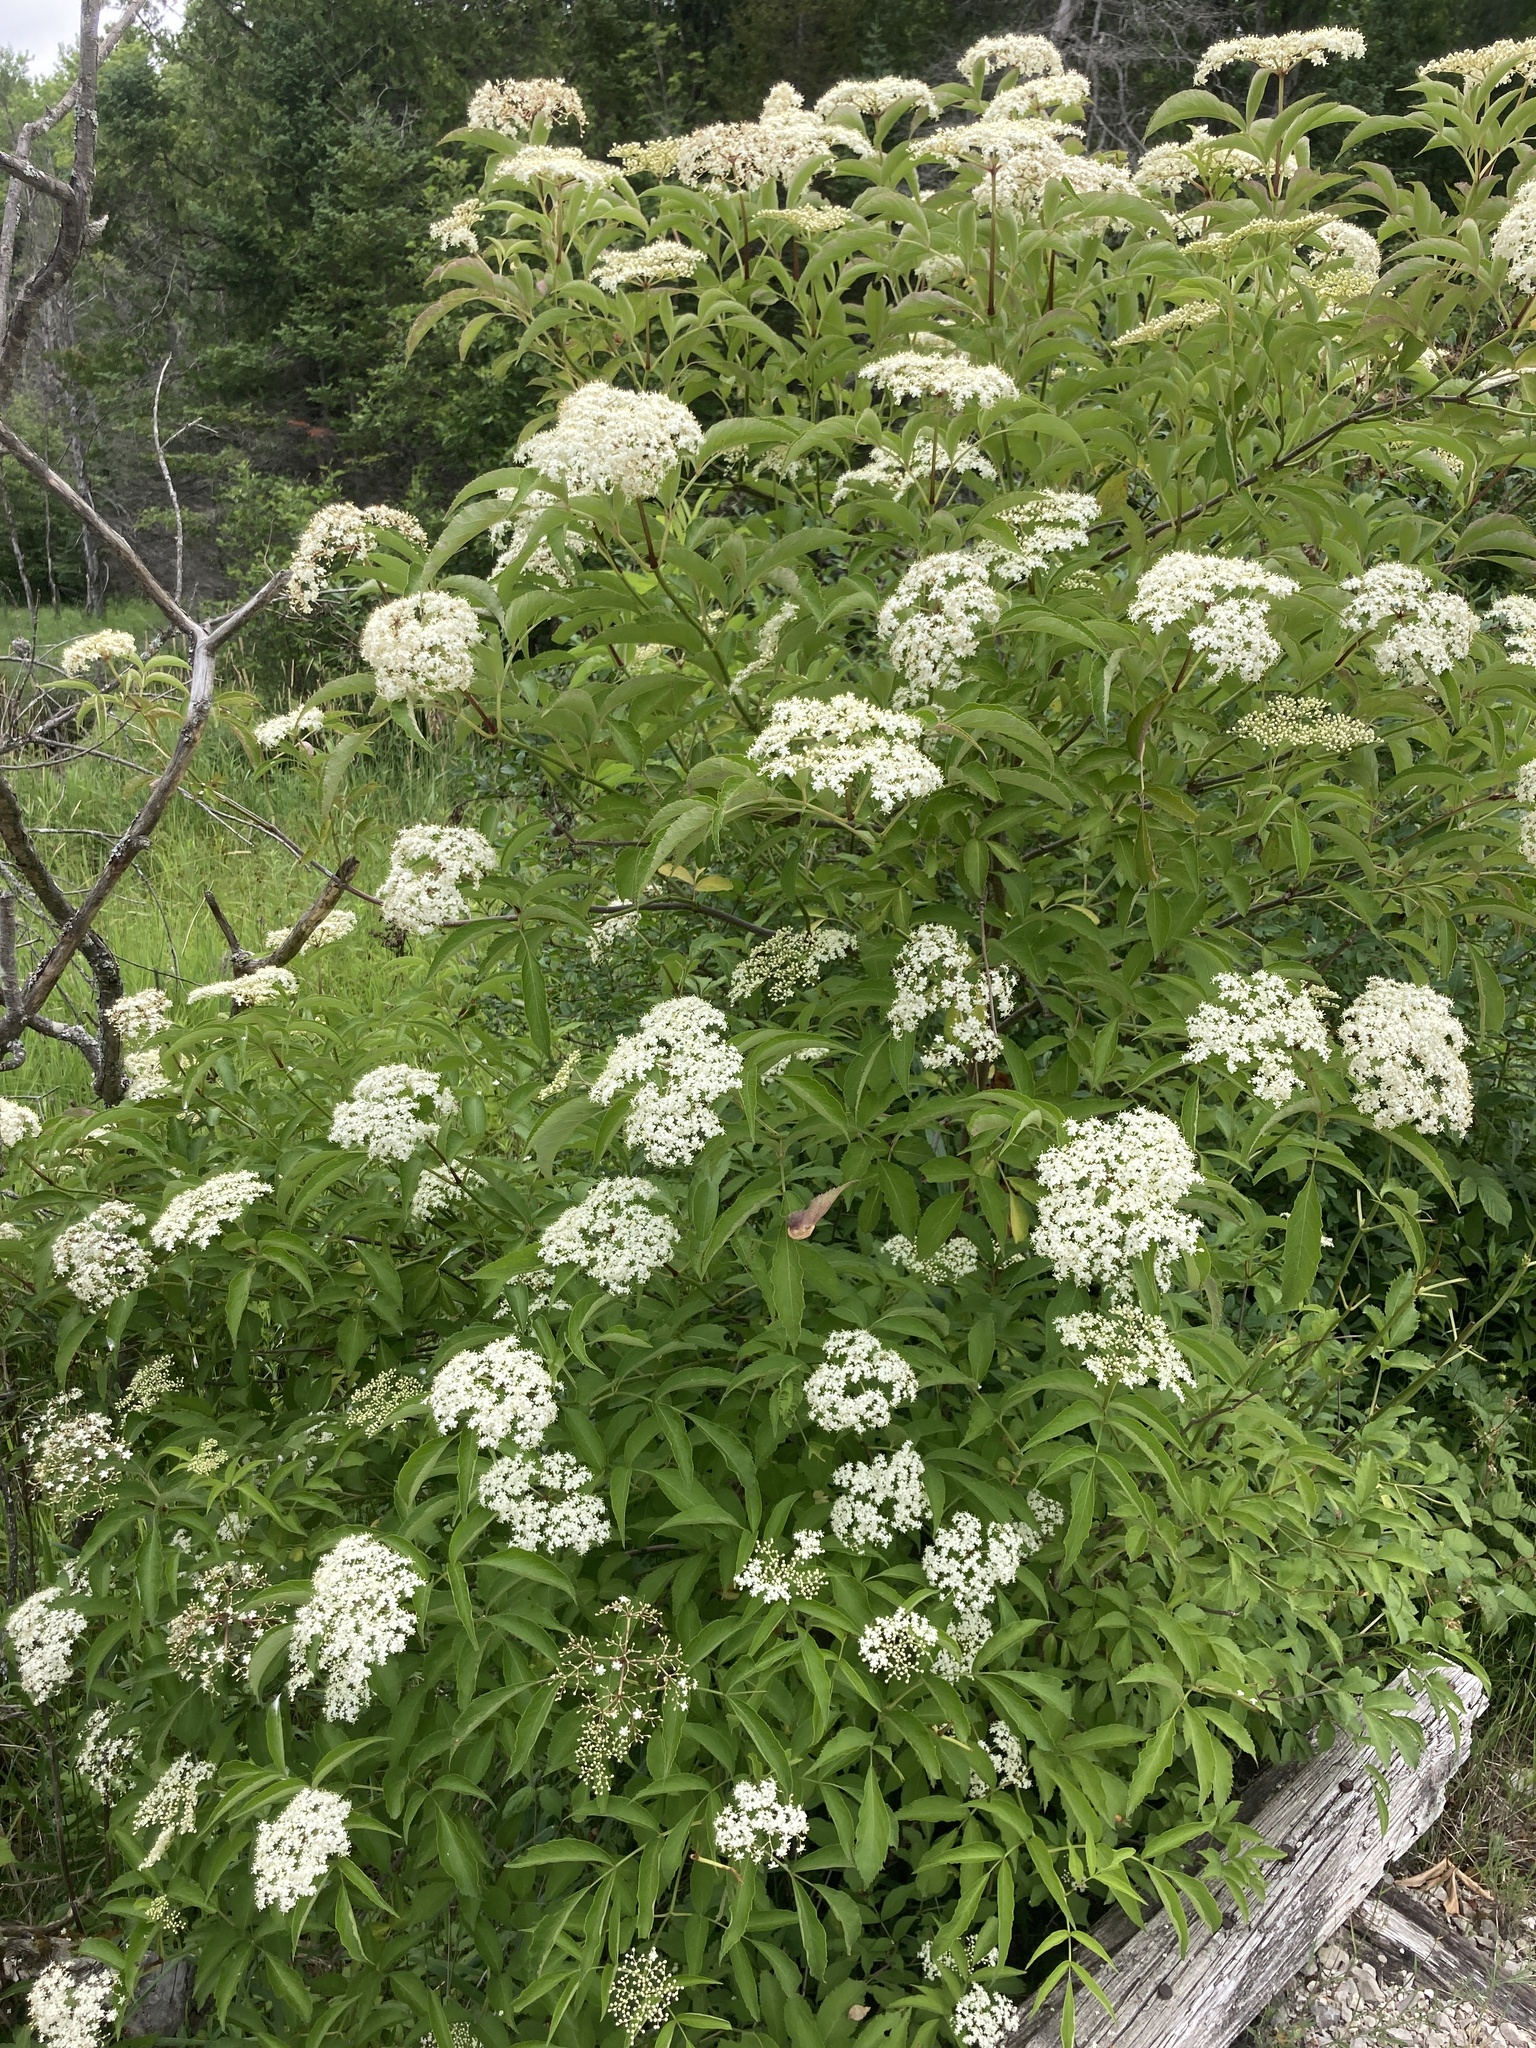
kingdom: Plantae
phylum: Tracheophyta
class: Magnoliopsida
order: Dipsacales
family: Viburnaceae
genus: Sambucus
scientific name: Sambucus canadensis
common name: American elder
